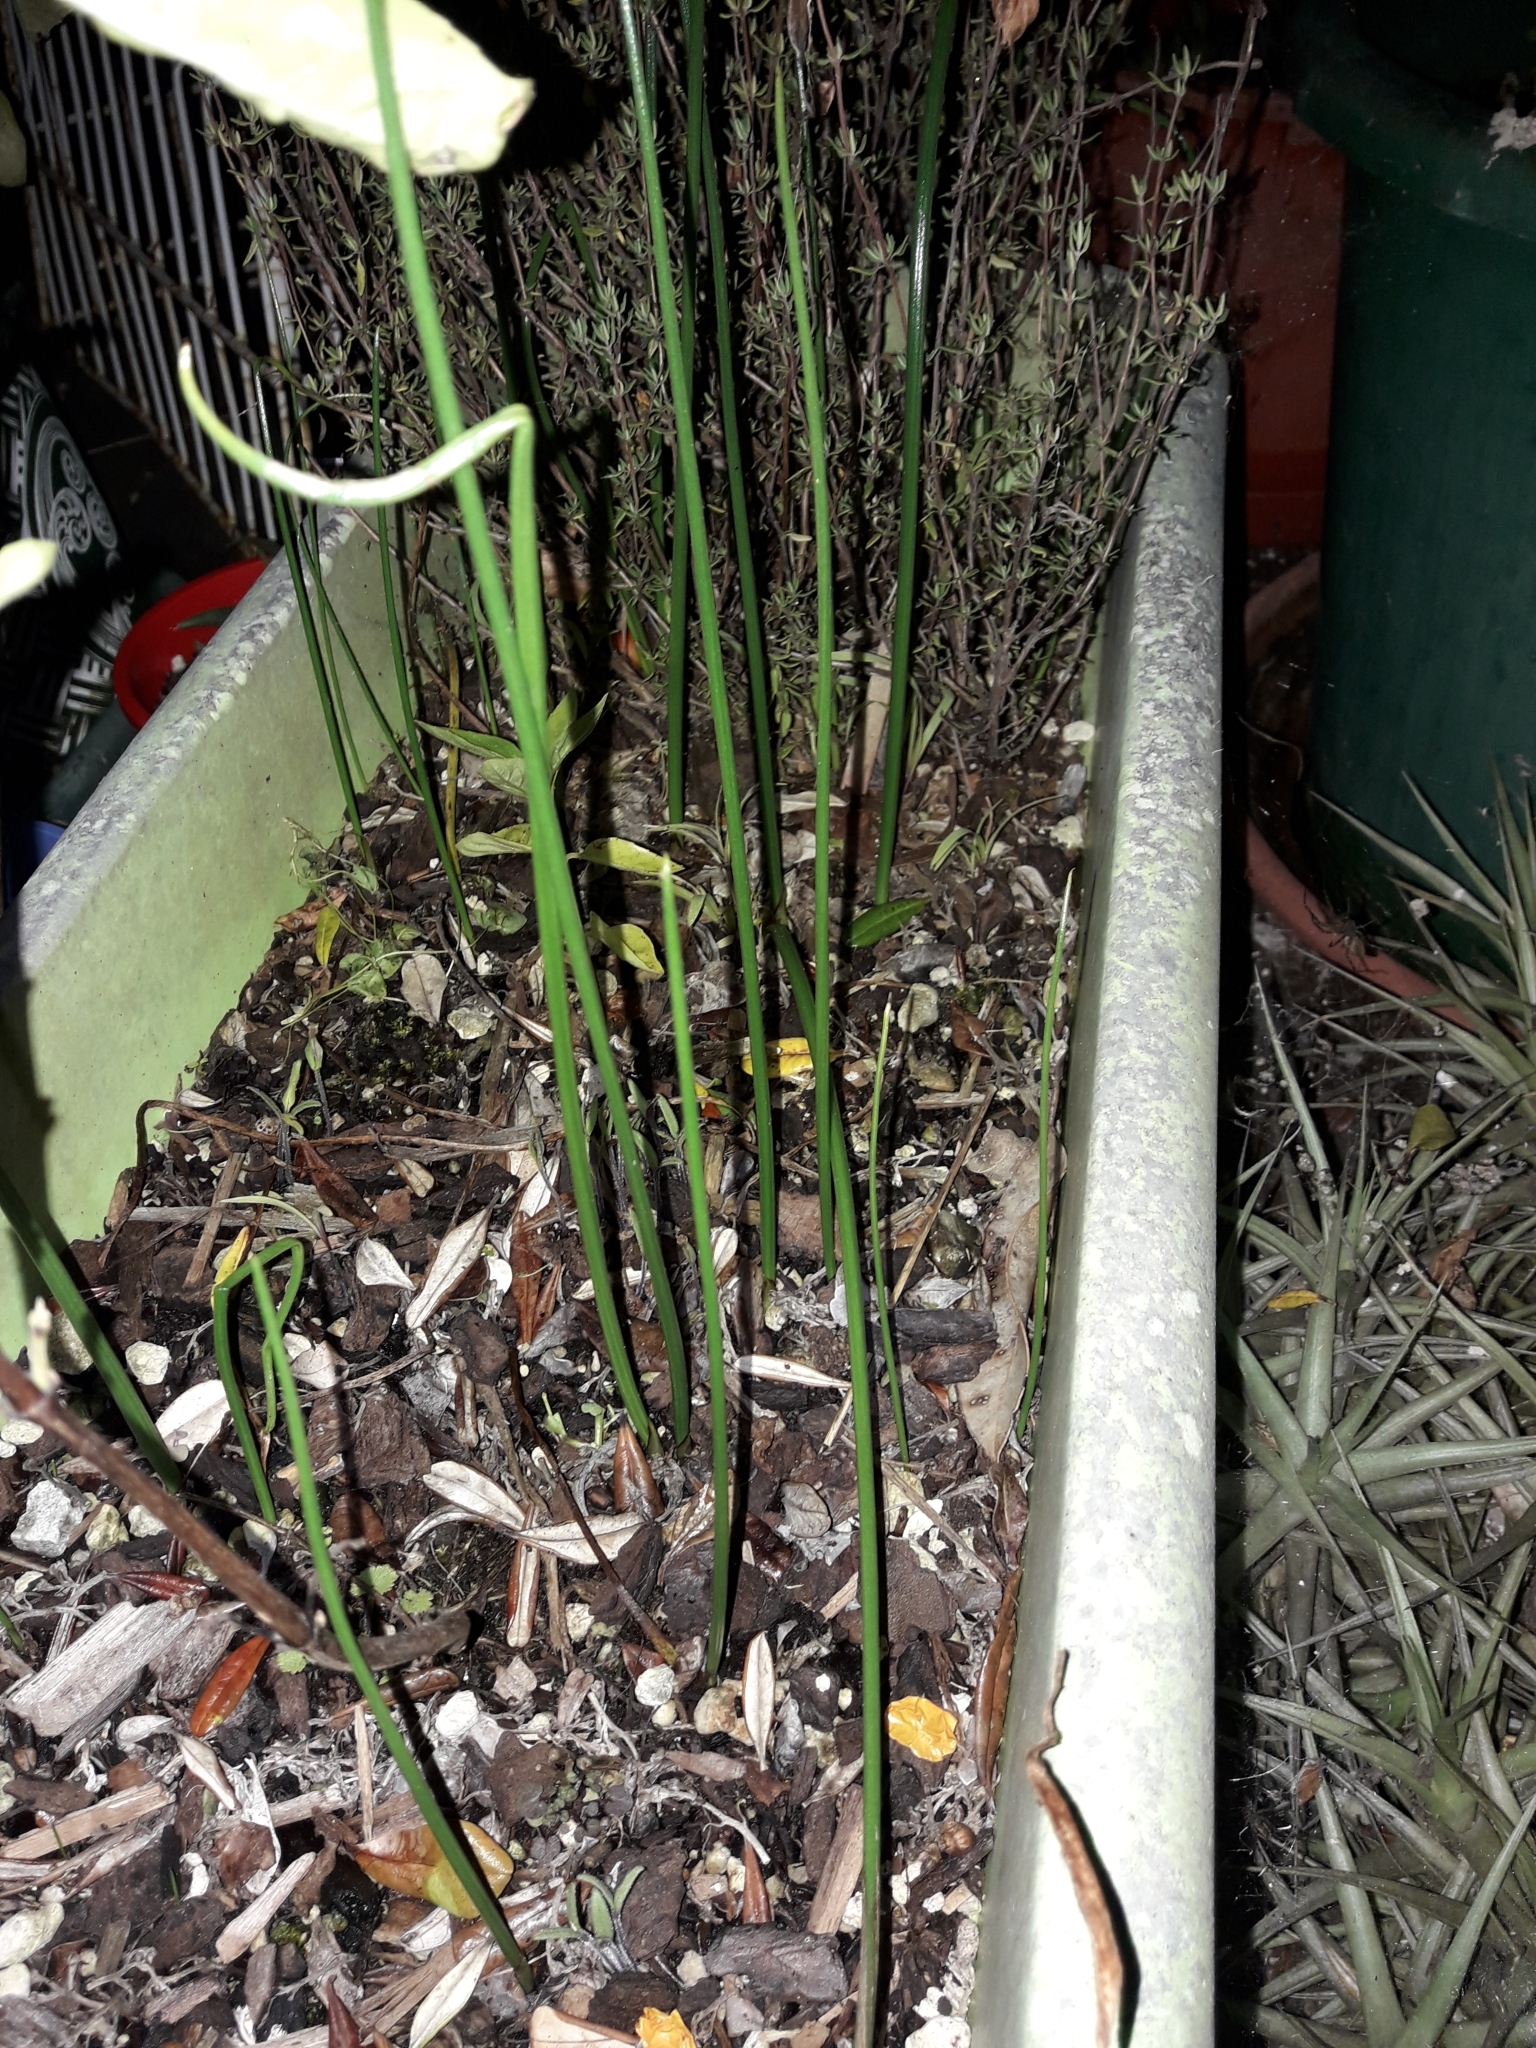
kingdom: Plantae
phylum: Tracheophyta
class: Liliopsida
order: Asparagales
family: Orchidaceae
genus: Microtis
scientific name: Microtis unifolia
